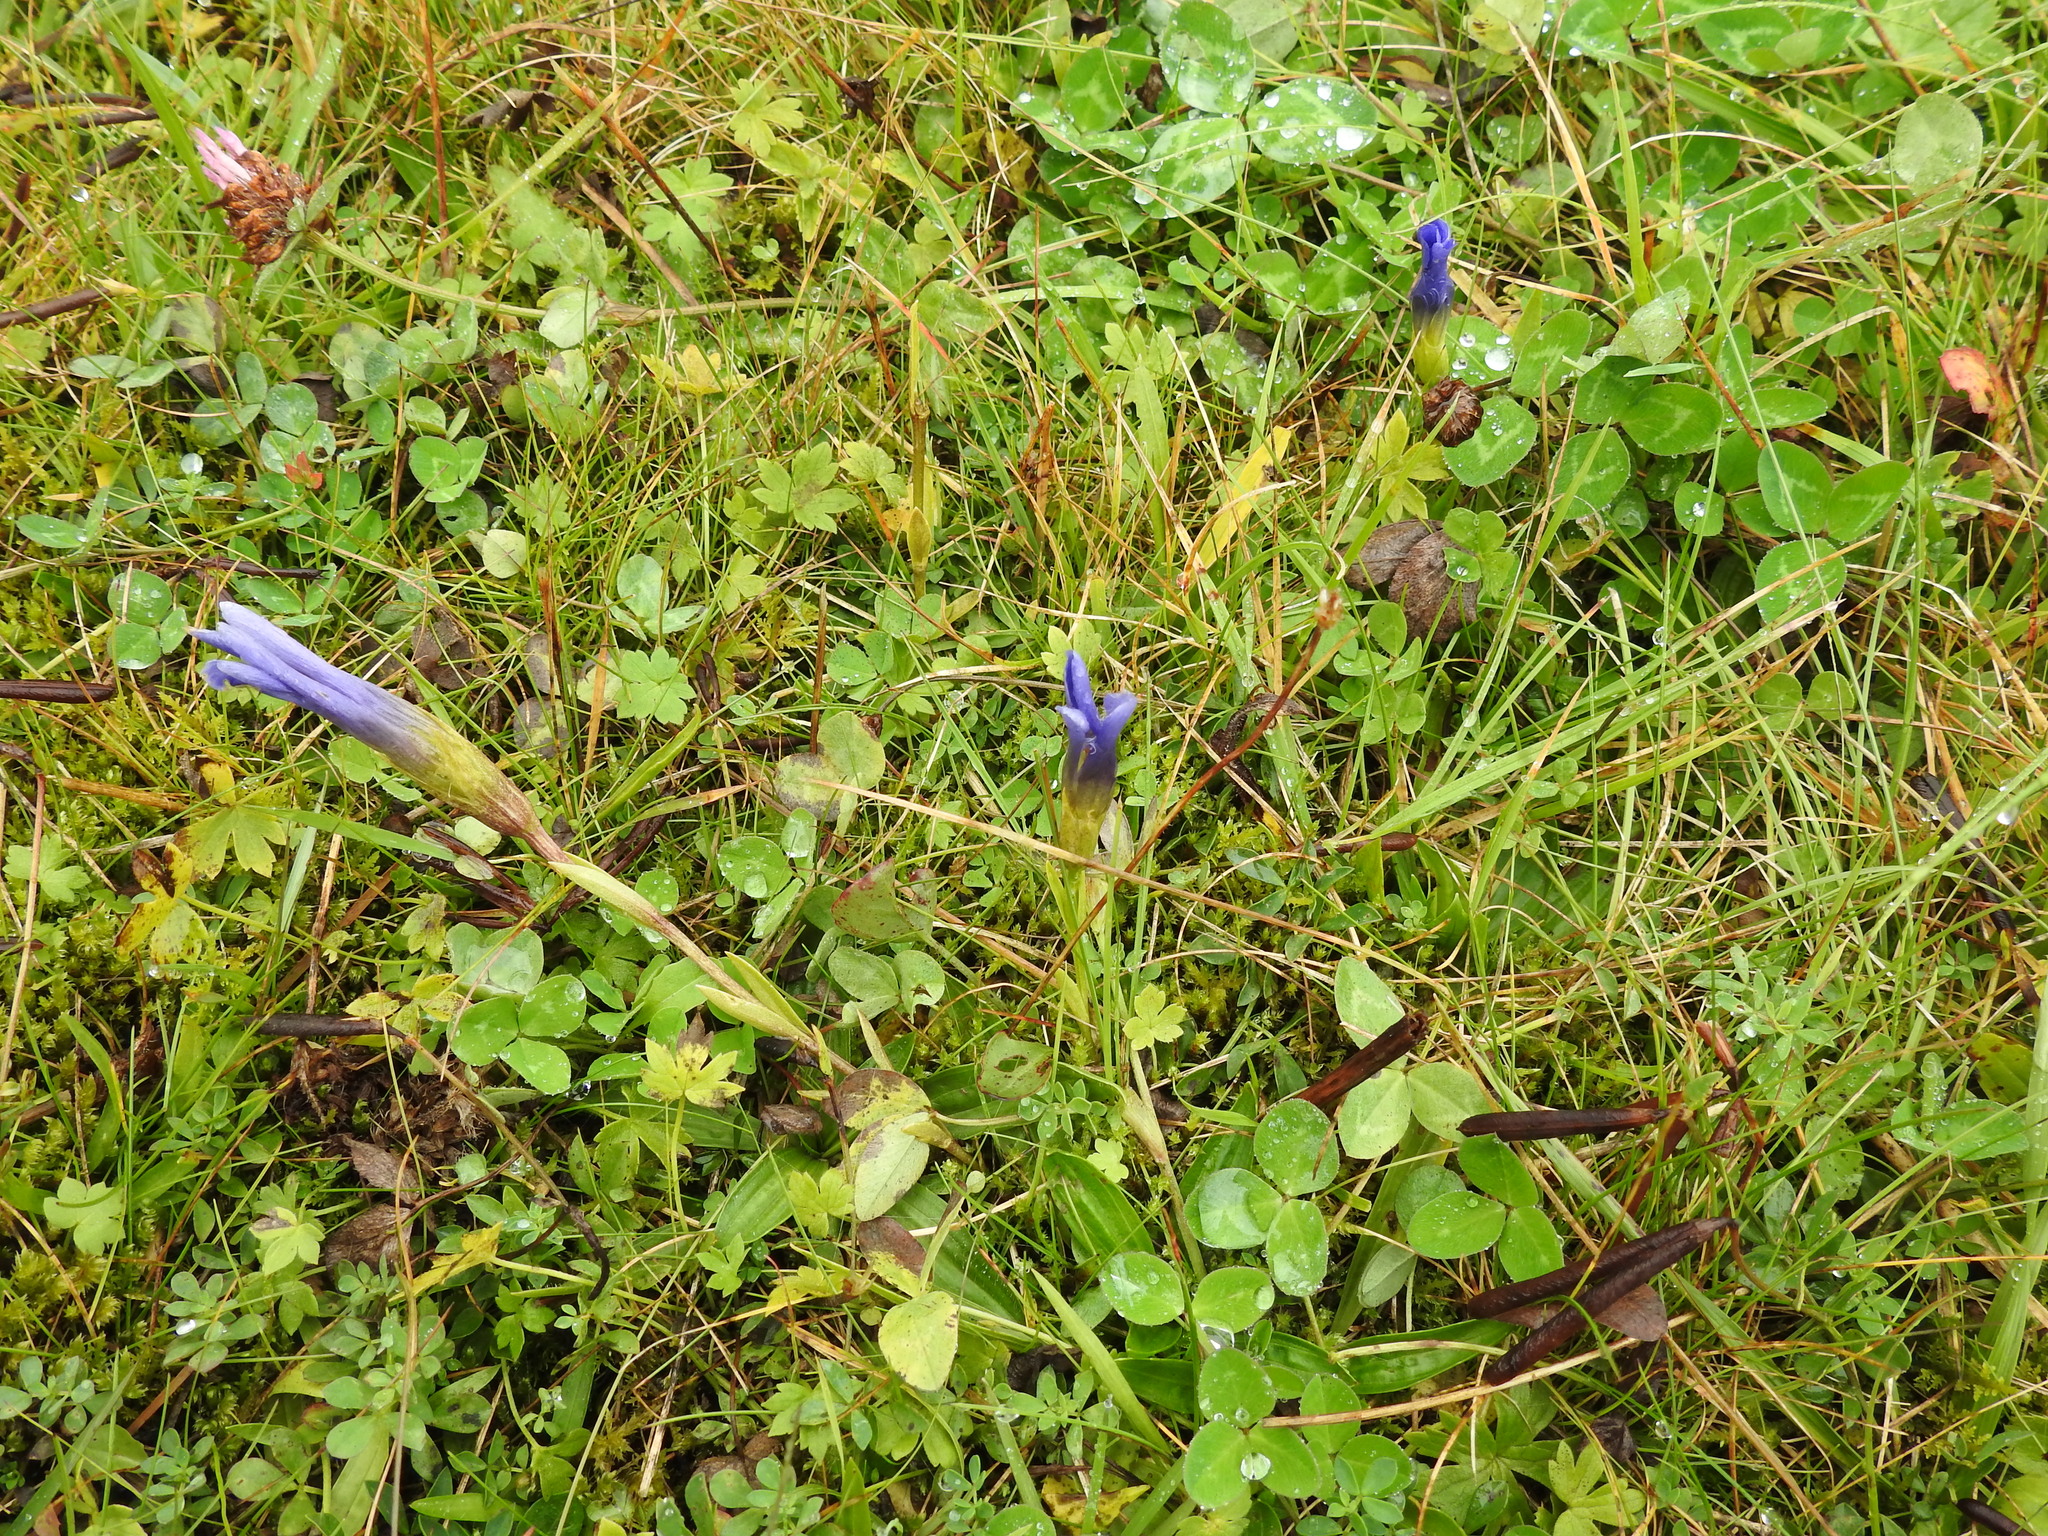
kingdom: Plantae
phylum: Tracheophyta
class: Magnoliopsida
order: Gentianales
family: Gentianaceae
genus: Gentianopsis
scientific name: Gentianopsis ciliata
